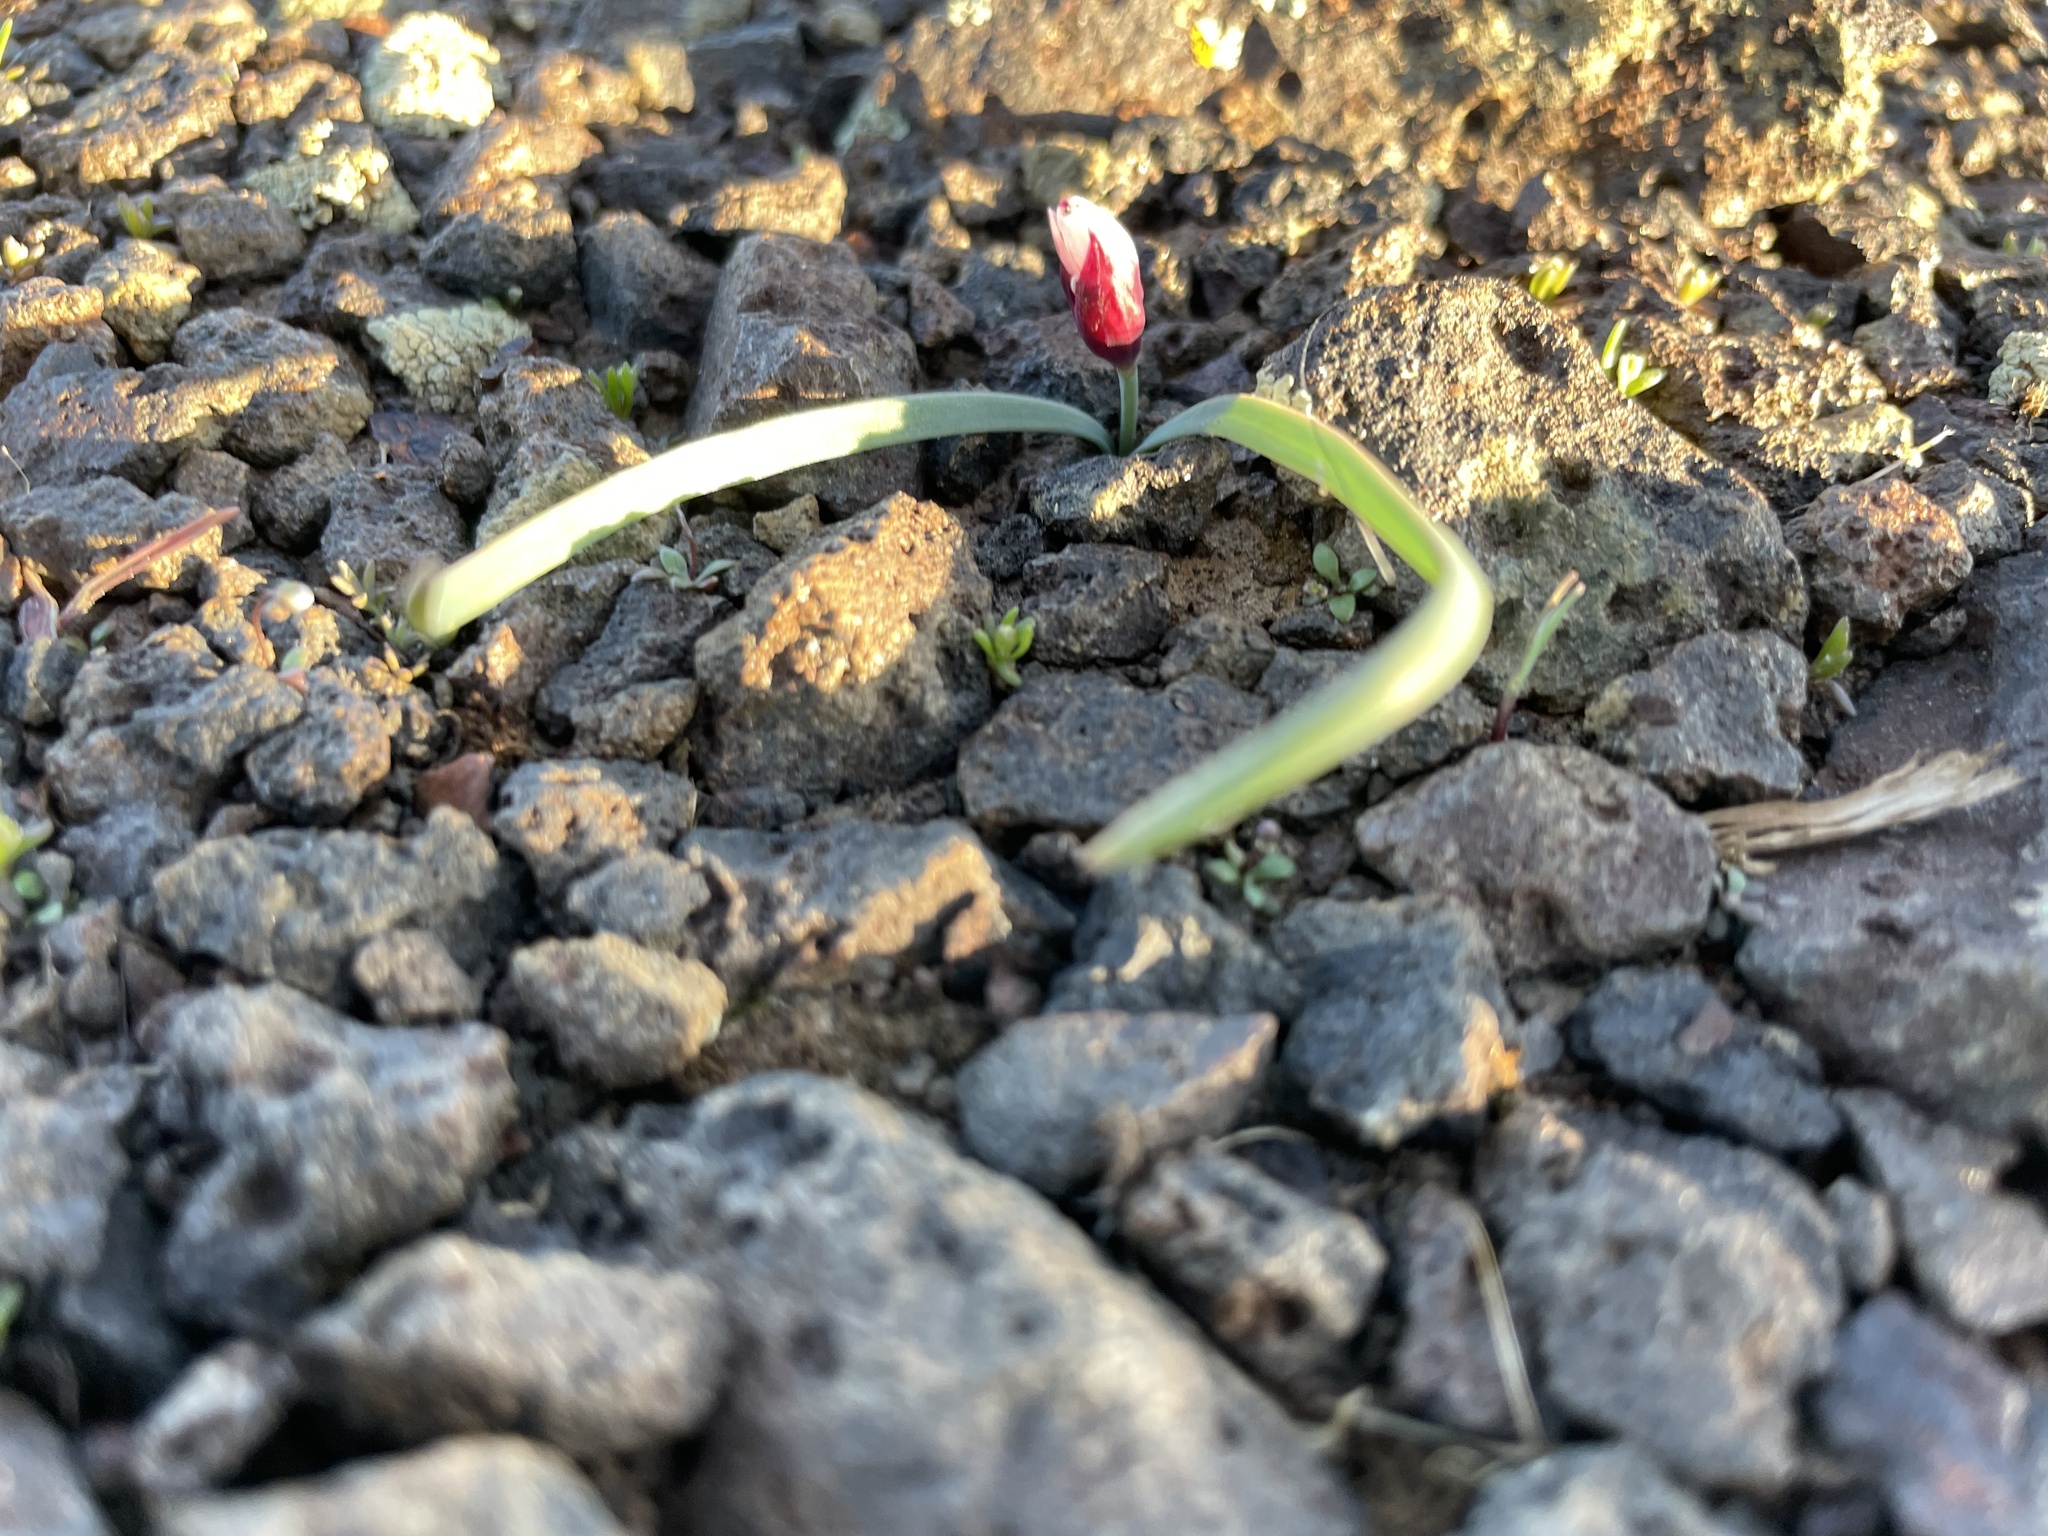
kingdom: Plantae
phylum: Tracheophyta
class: Liliopsida
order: Asparagales
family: Amaryllidaceae
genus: Allium
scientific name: Allium scilloides
